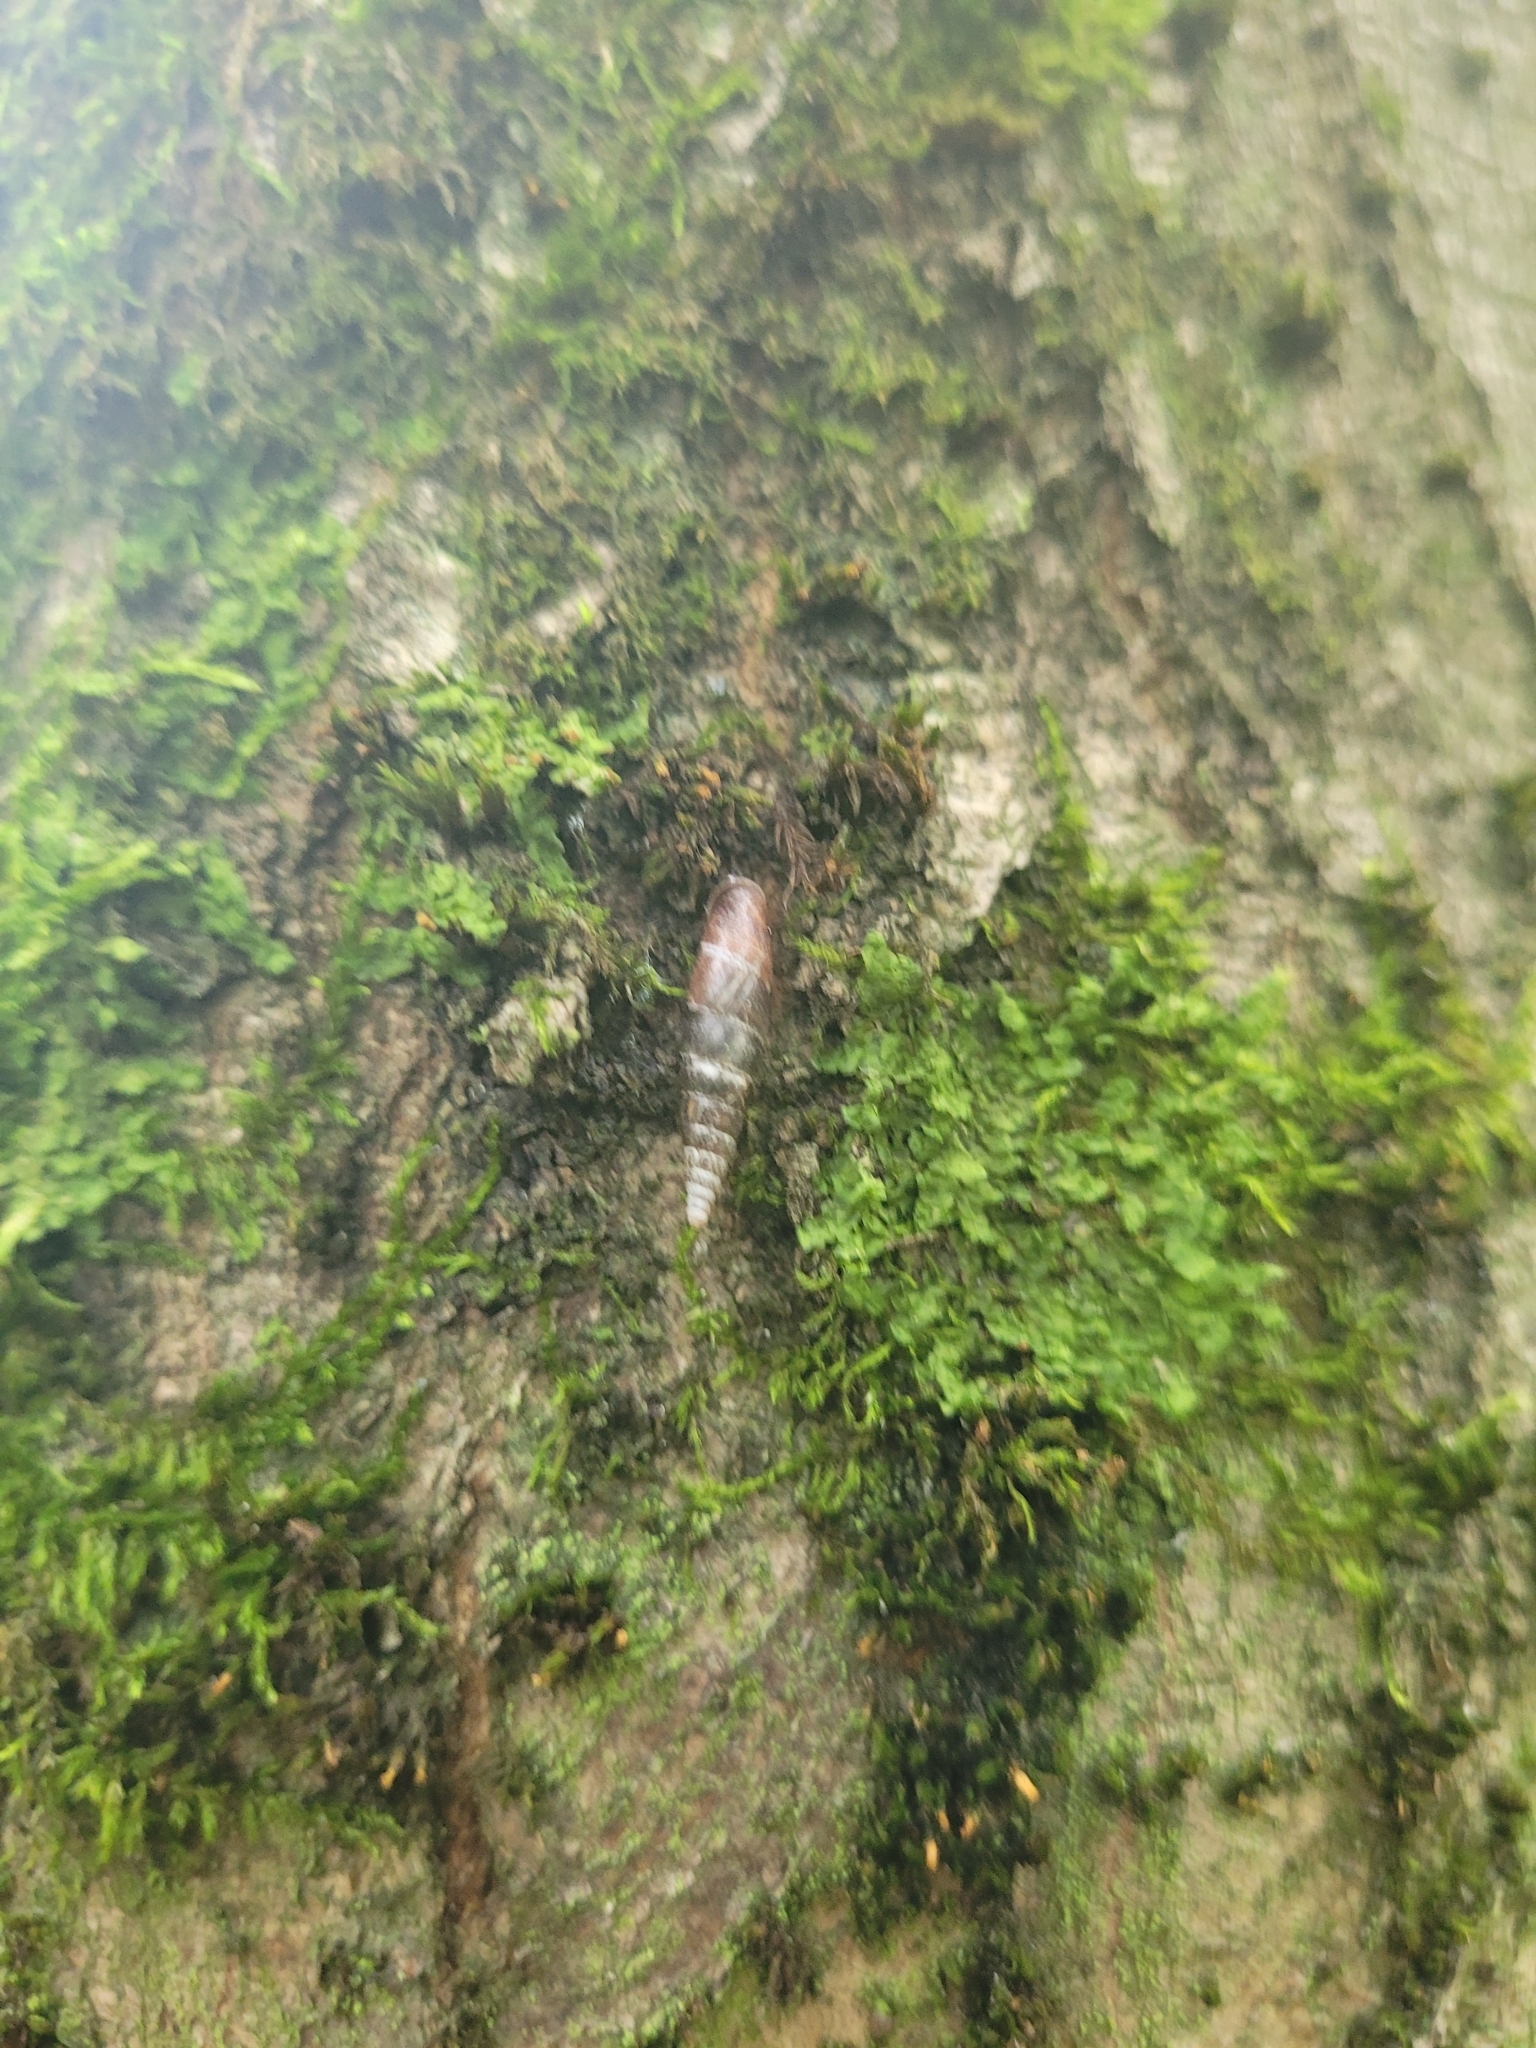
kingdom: Animalia
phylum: Mollusca
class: Gastropoda
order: Stylommatophora
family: Clausiliidae
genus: Cochlodina
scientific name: Cochlodina laminata
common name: Plaited door snail
